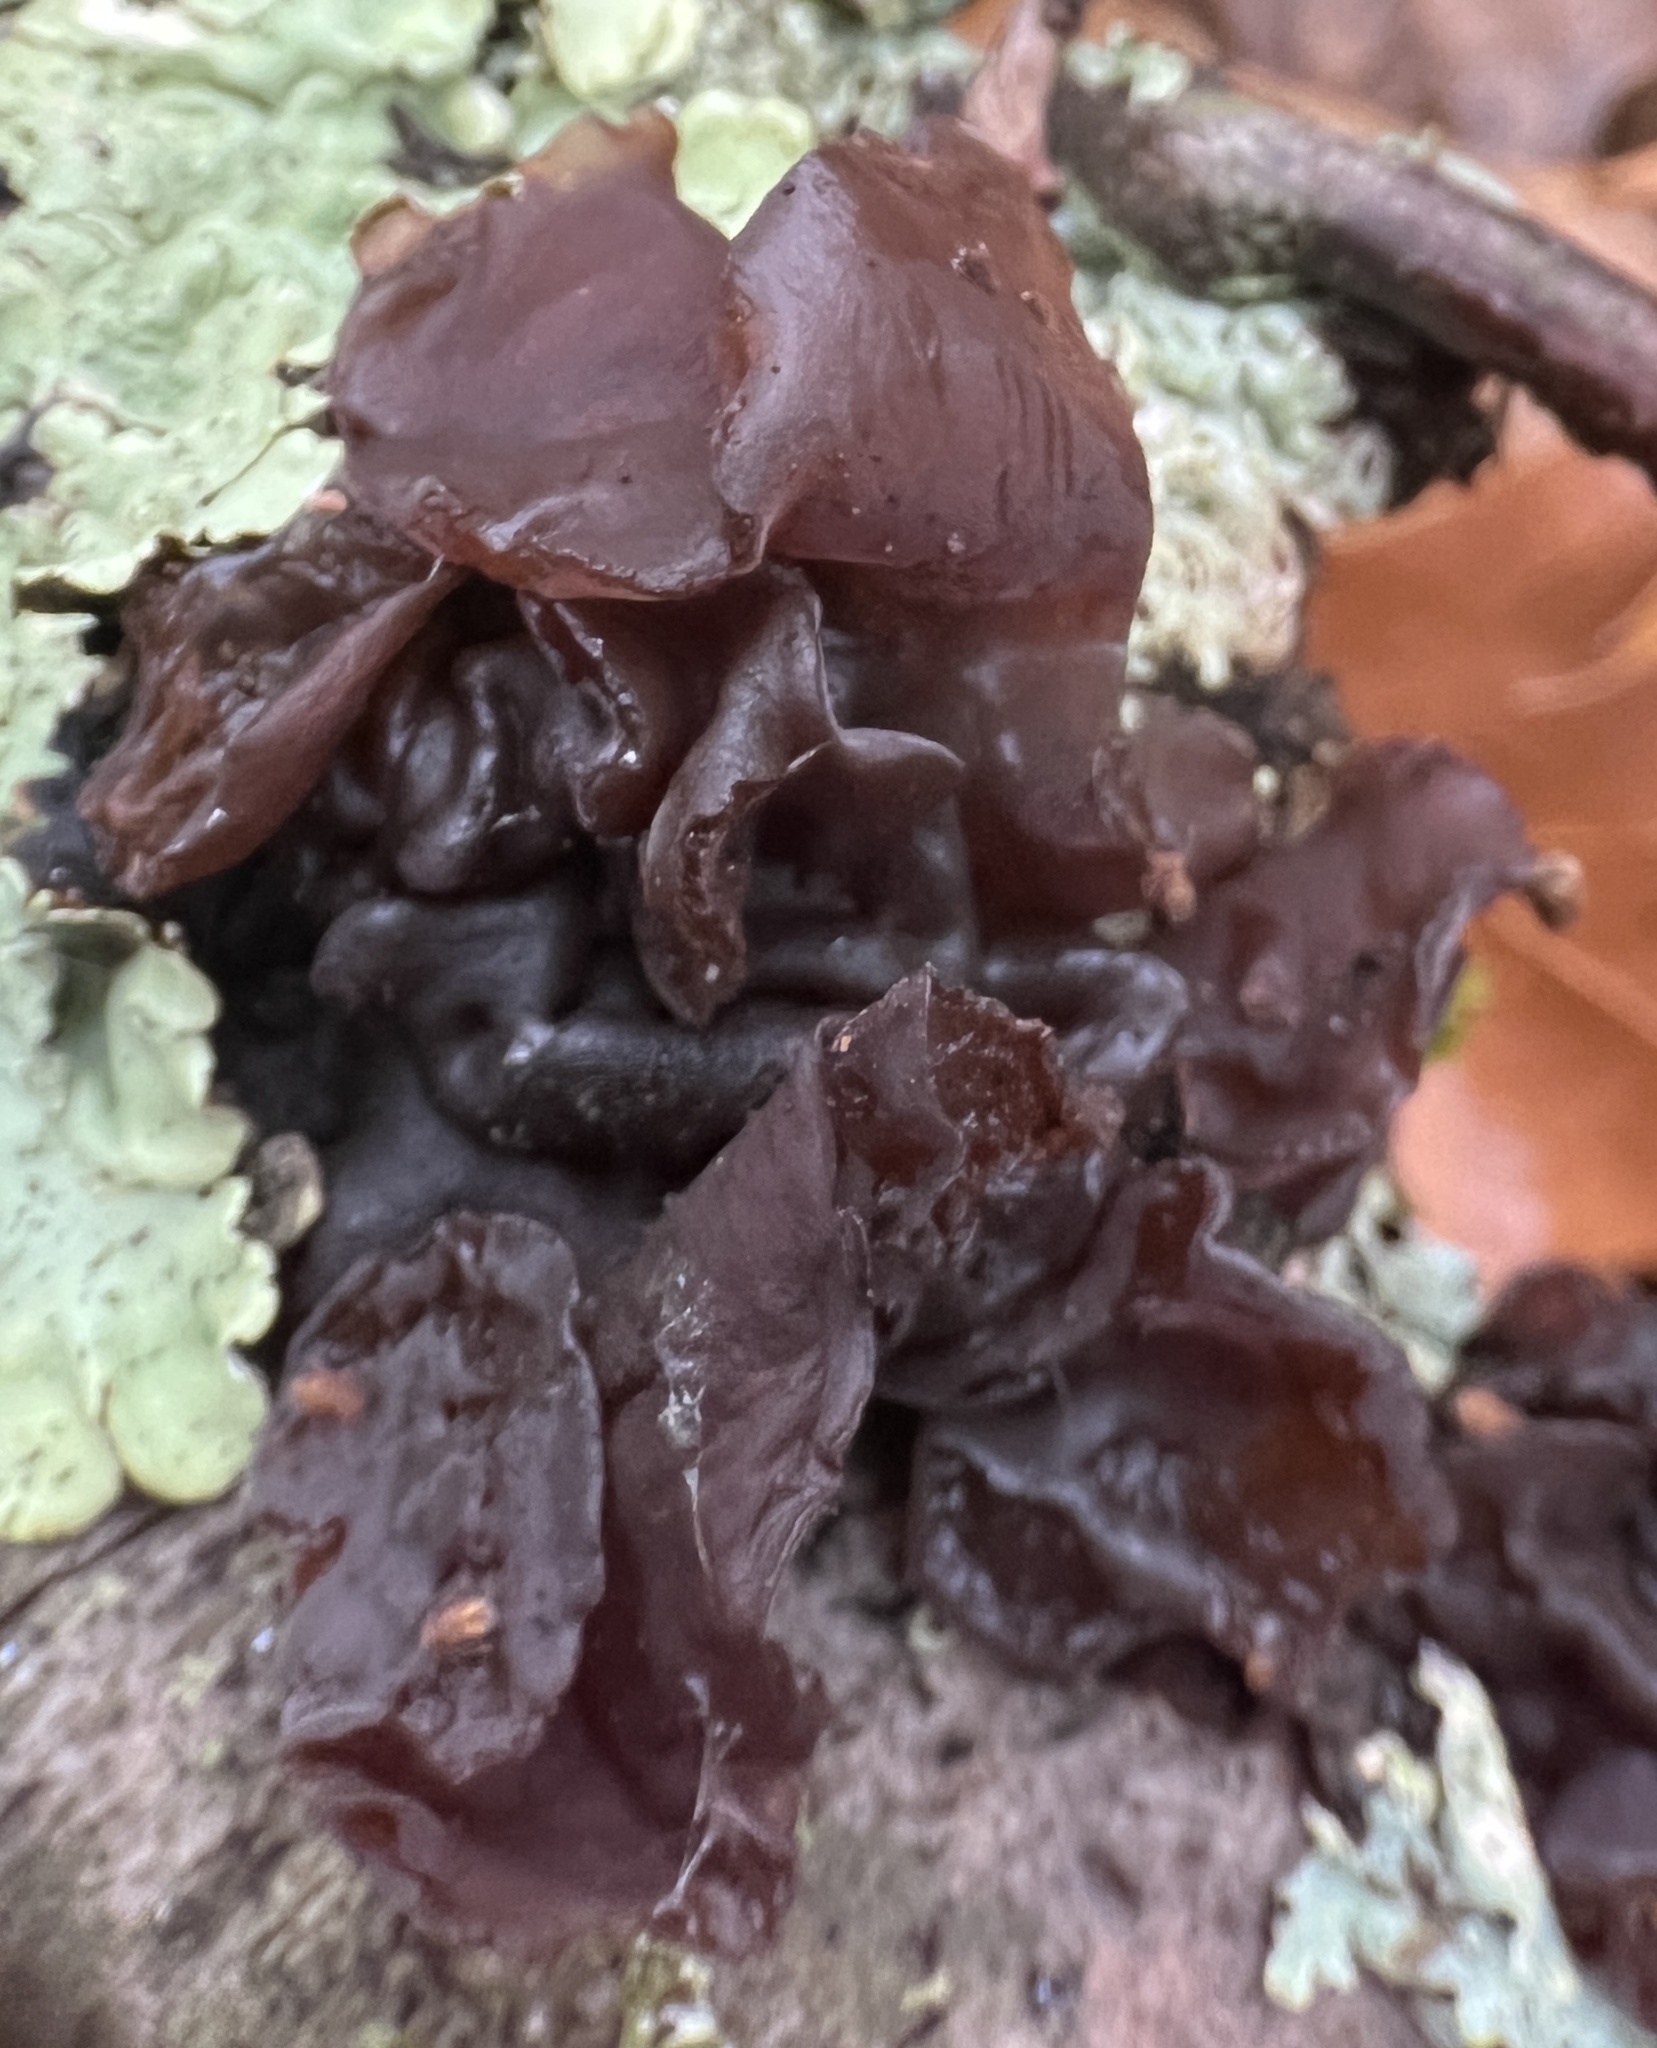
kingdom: Fungi
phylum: Basidiomycota
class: Agaricomycetes
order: Auriculariales
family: Auriculariaceae
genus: Exidia
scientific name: Exidia
